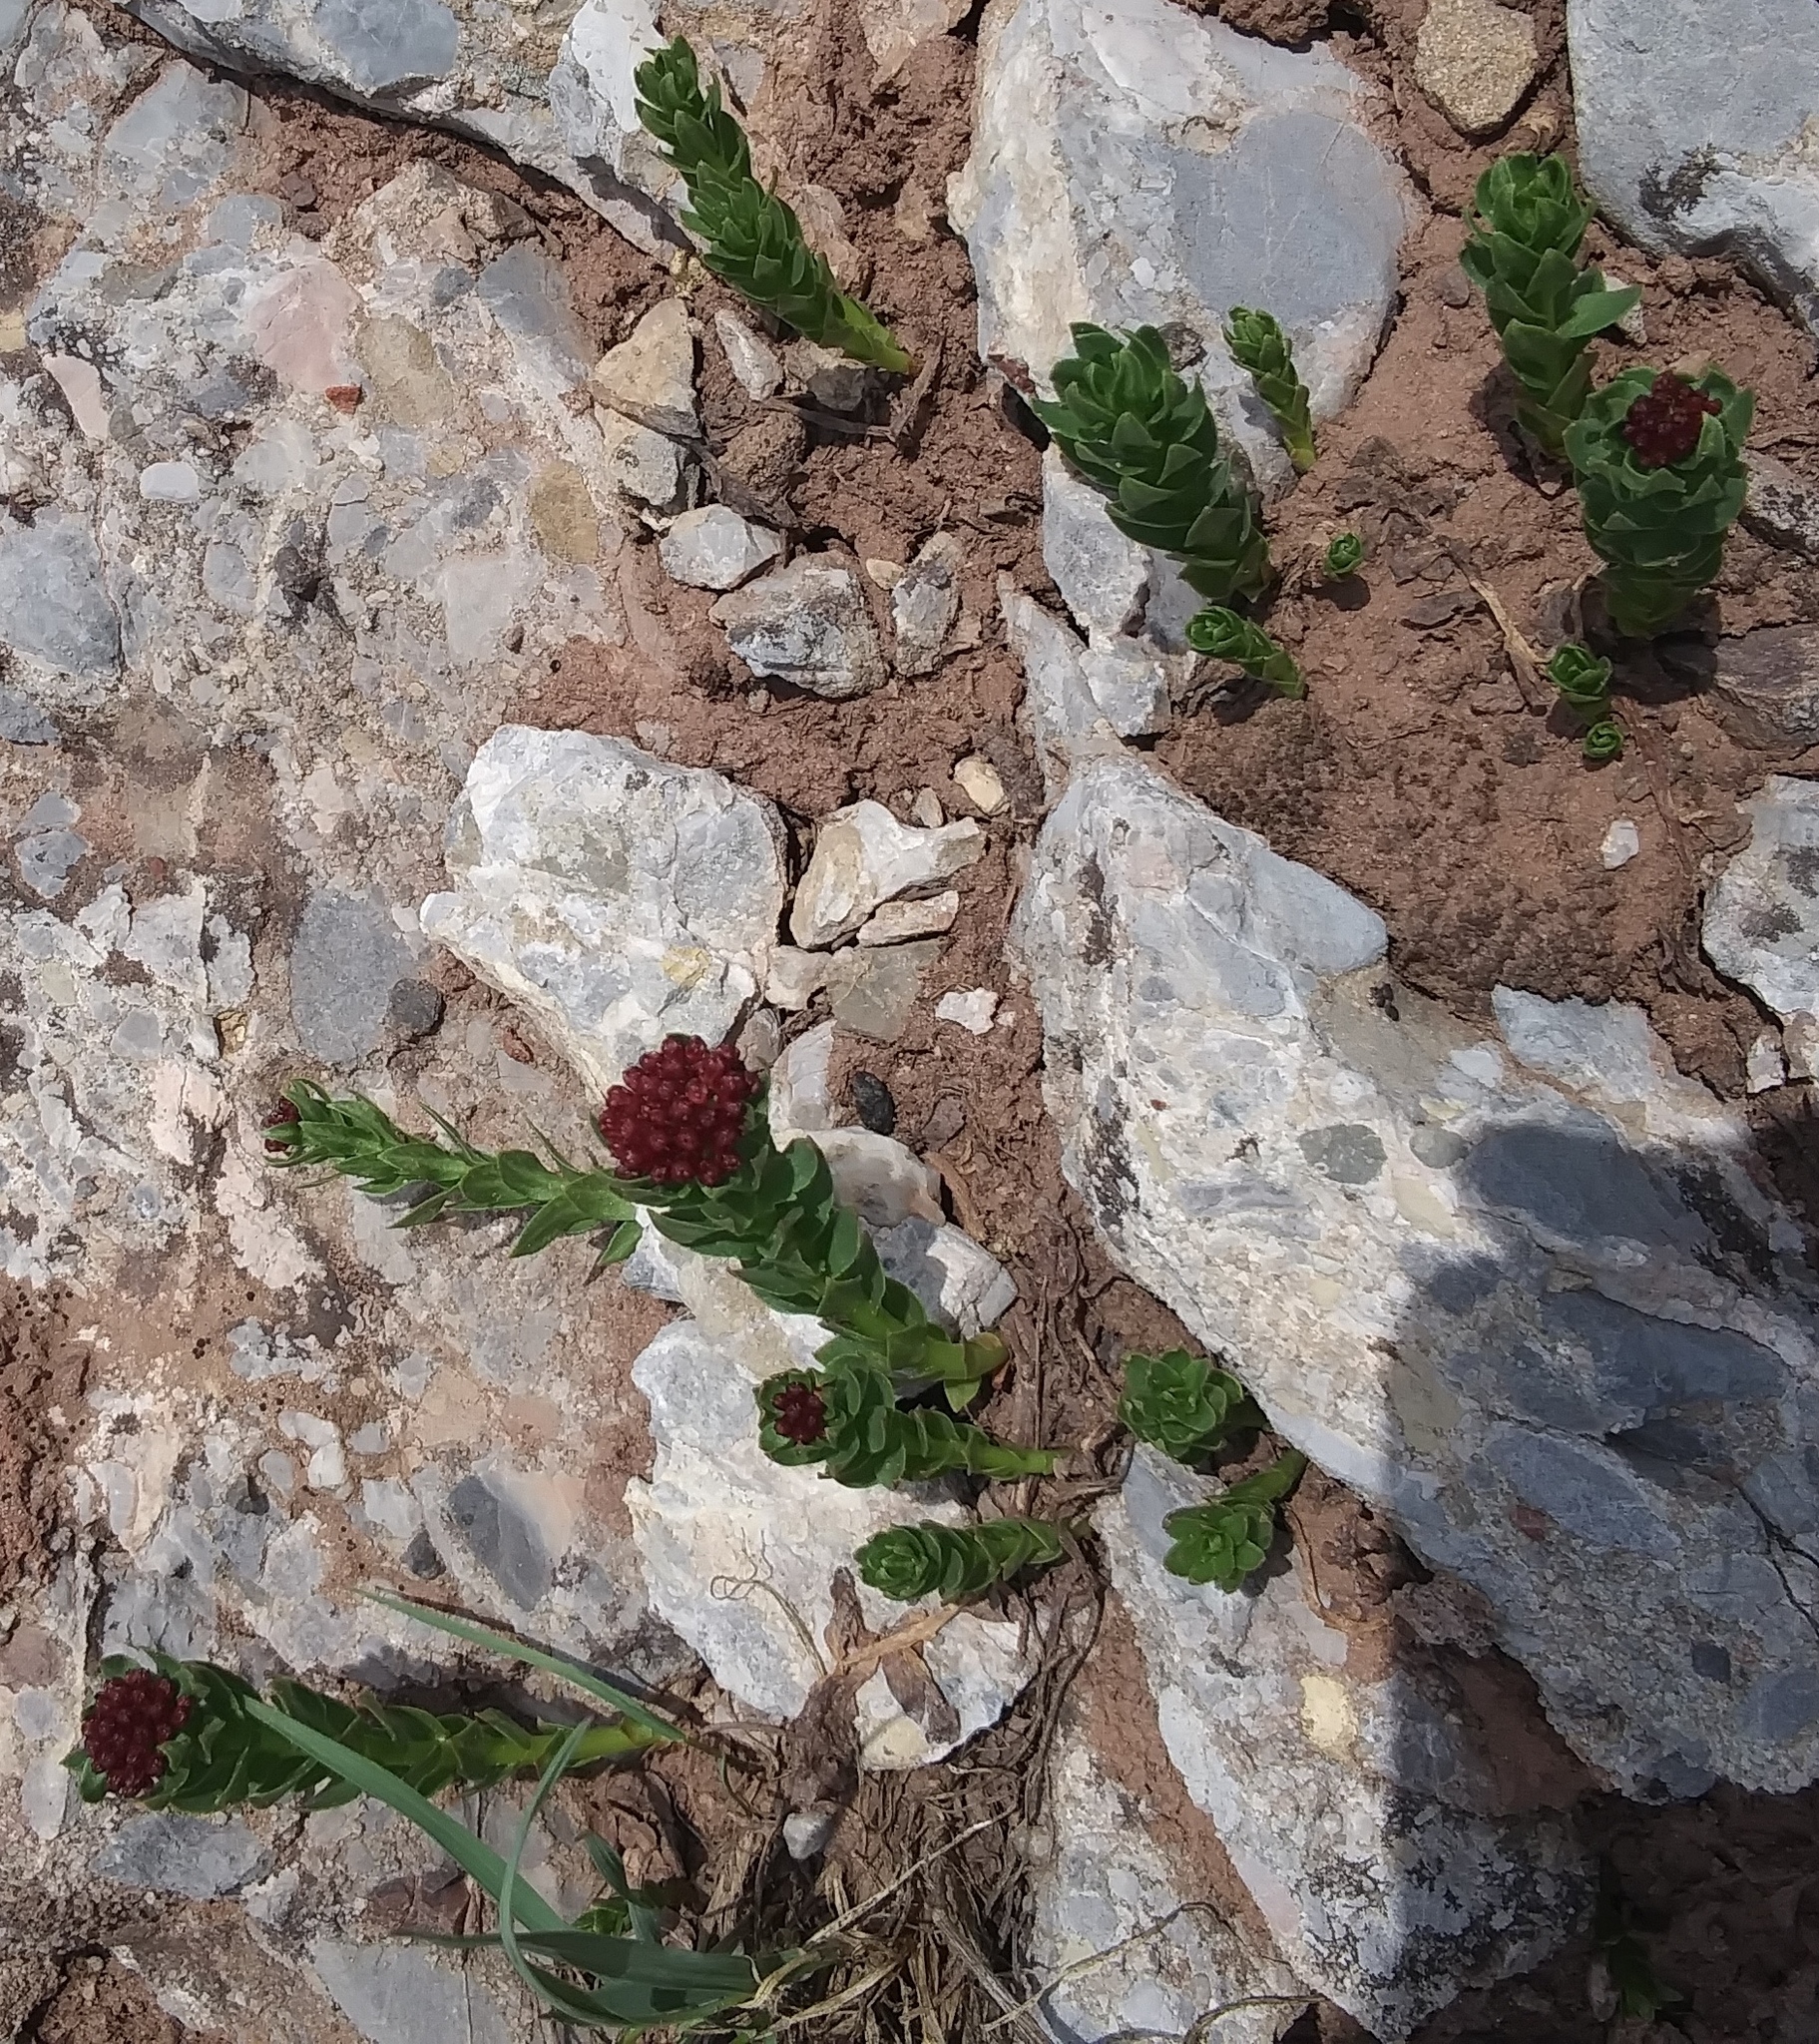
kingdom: Plantae
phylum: Tracheophyta
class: Magnoliopsida
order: Saxifragales
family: Crassulaceae
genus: Rhodiola
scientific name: Rhodiola integrifolia
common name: Western roseroot
